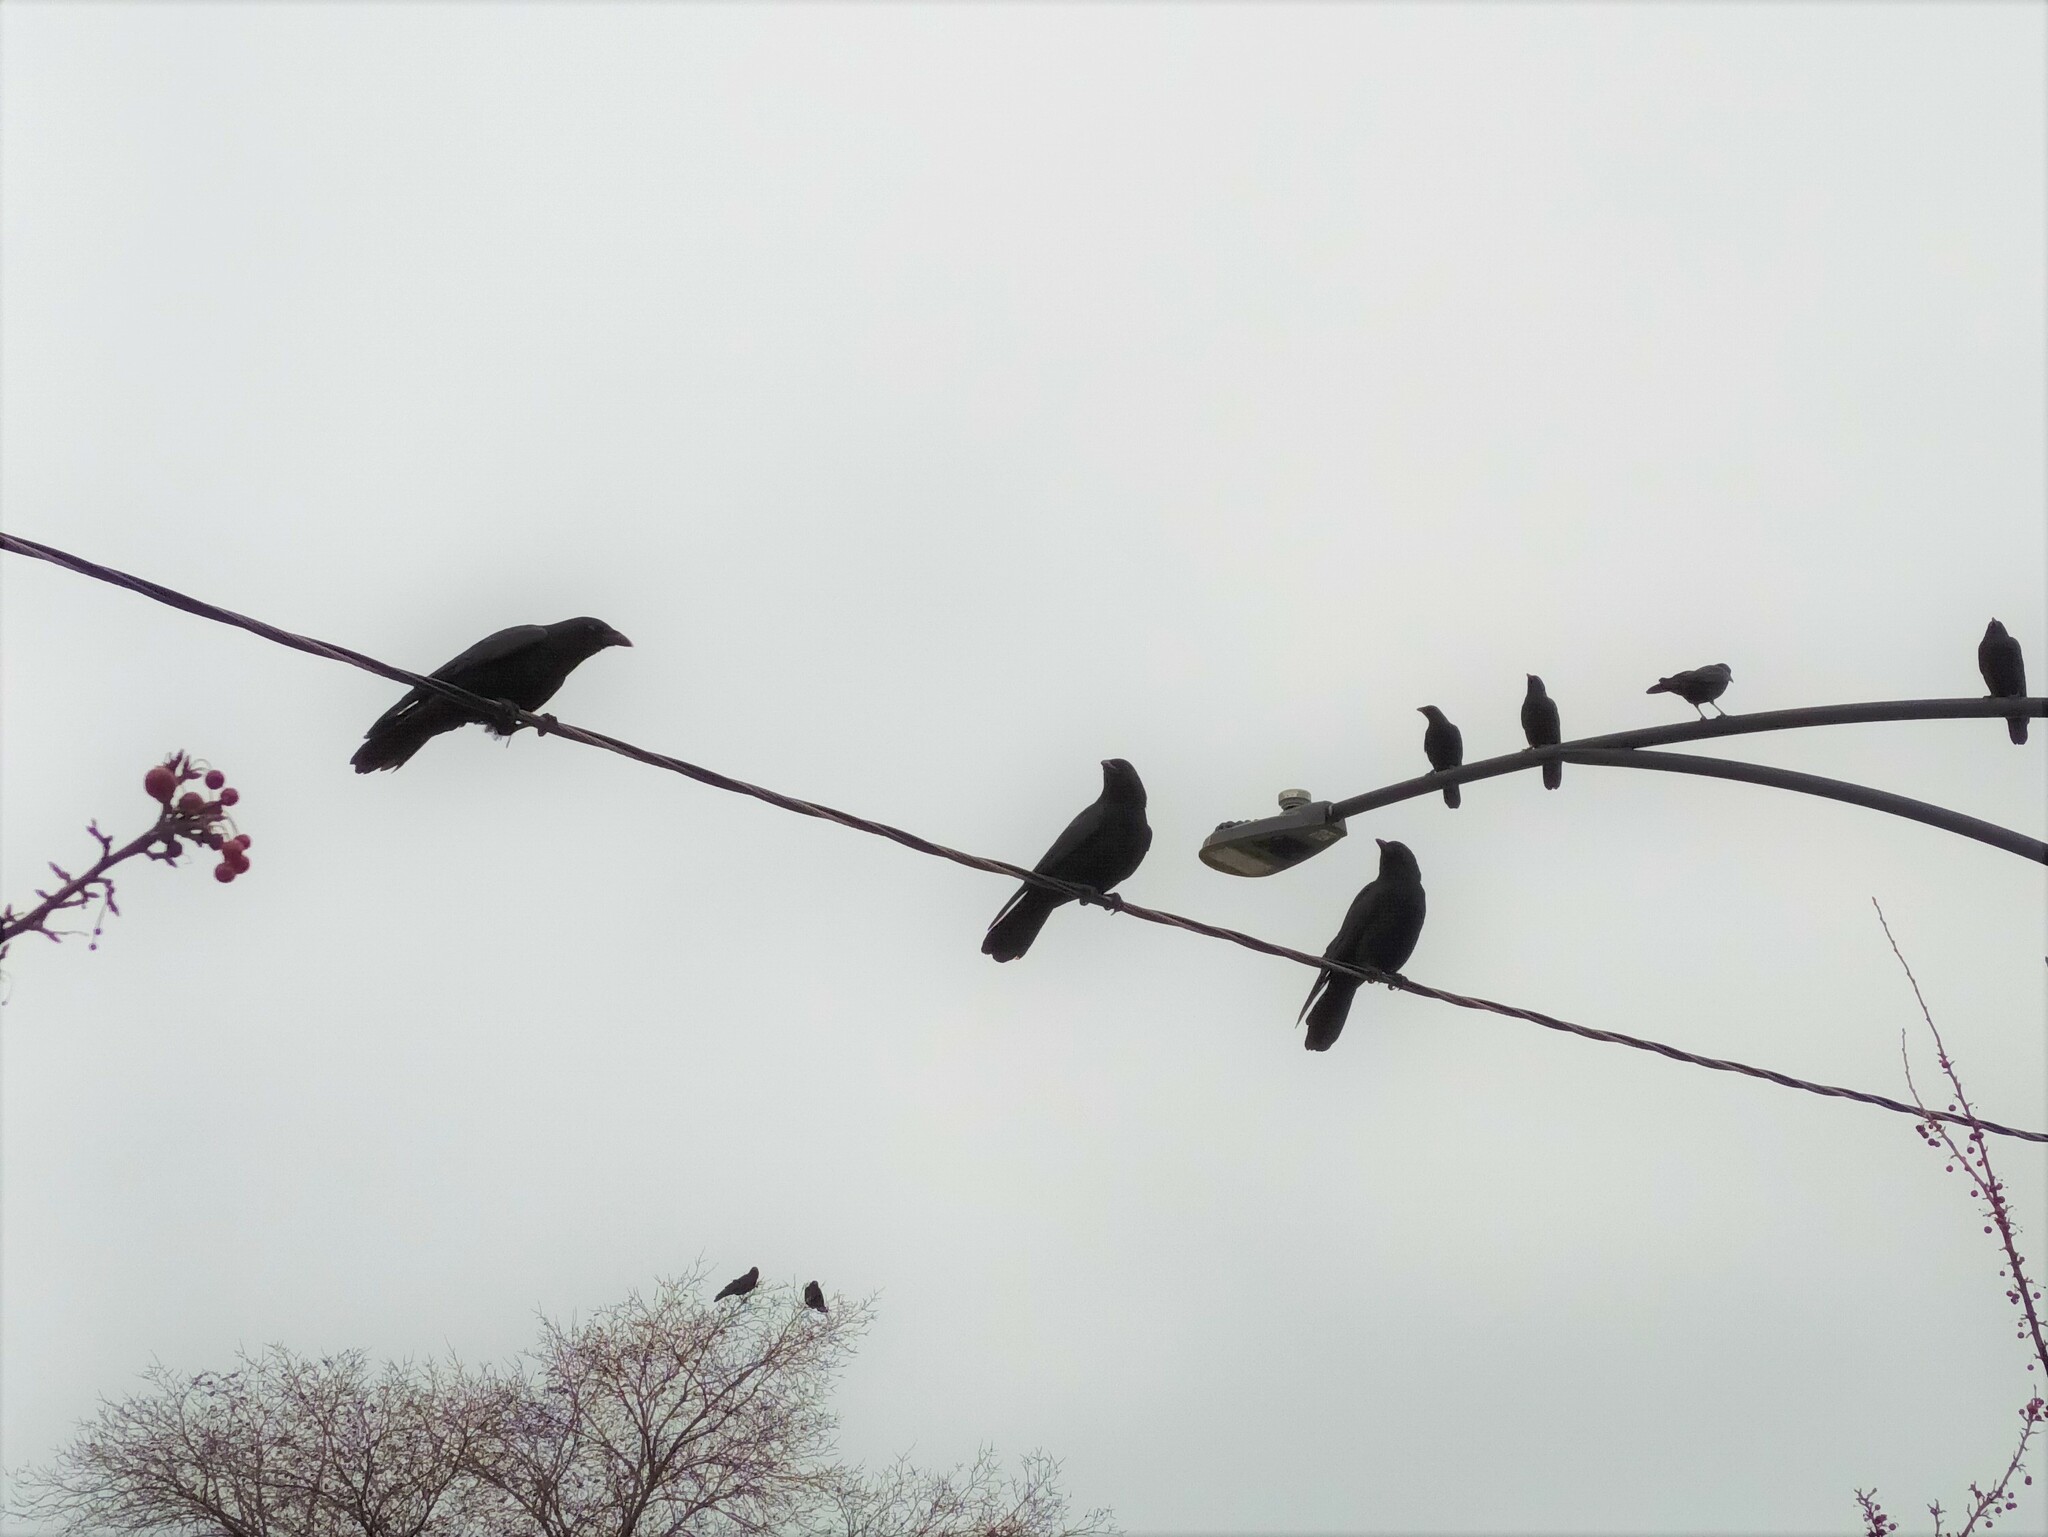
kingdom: Animalia
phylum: Chordata
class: Aves
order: Passeriformes
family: Corvidae
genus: Corvus
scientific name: Corvus brachyrhynchos
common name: American crow
